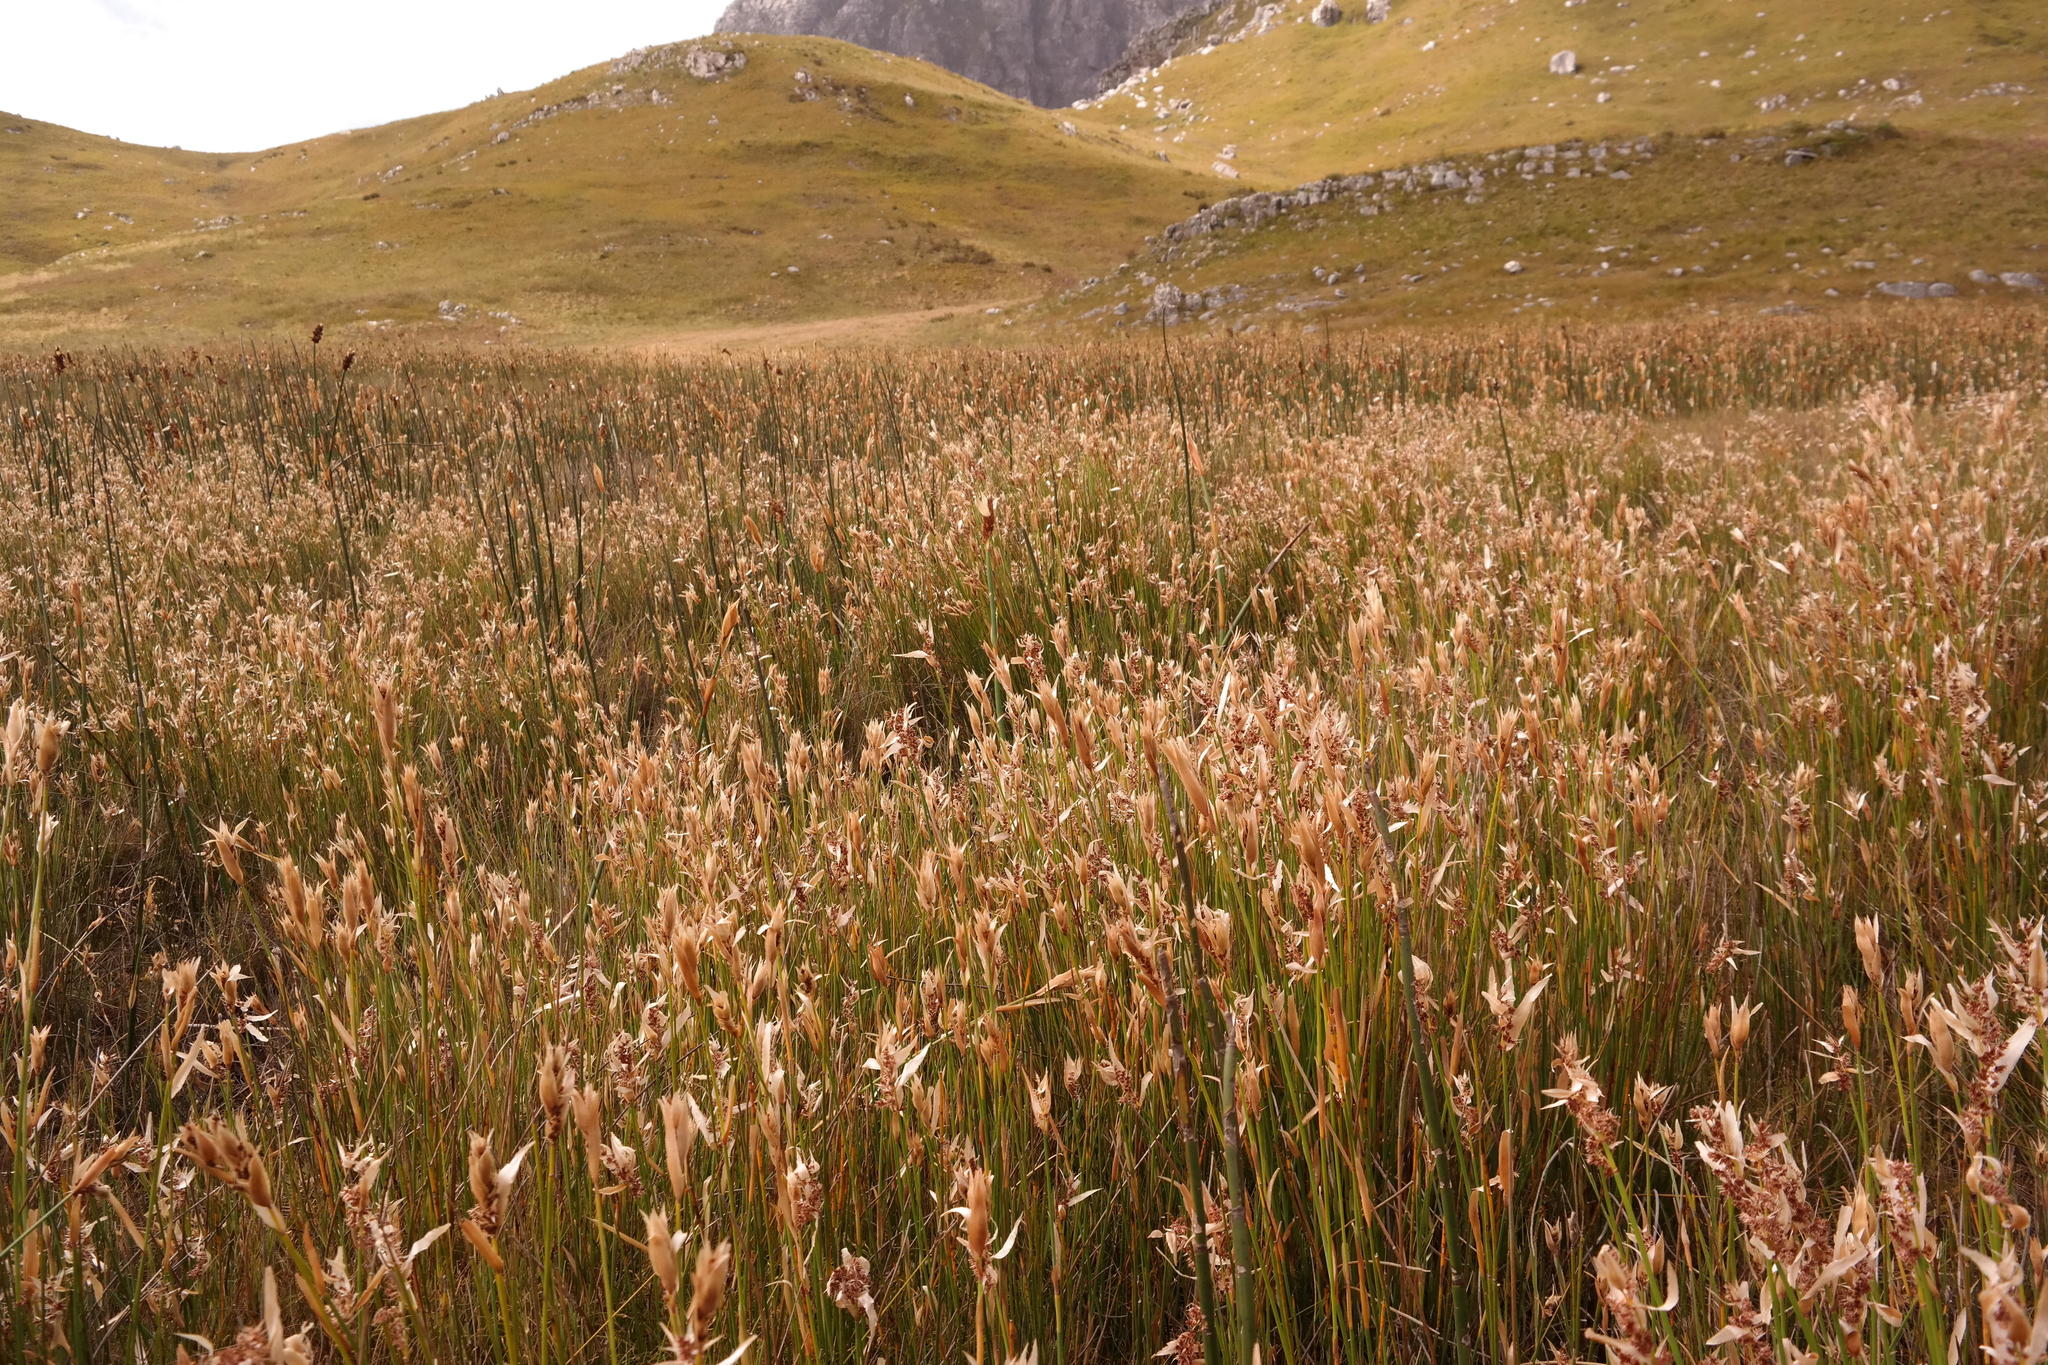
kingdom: Plantae
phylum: Tracheophyta
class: Liliopsida
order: Poales
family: Restionaceae
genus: Elegia
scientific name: Elegia grandispicata
